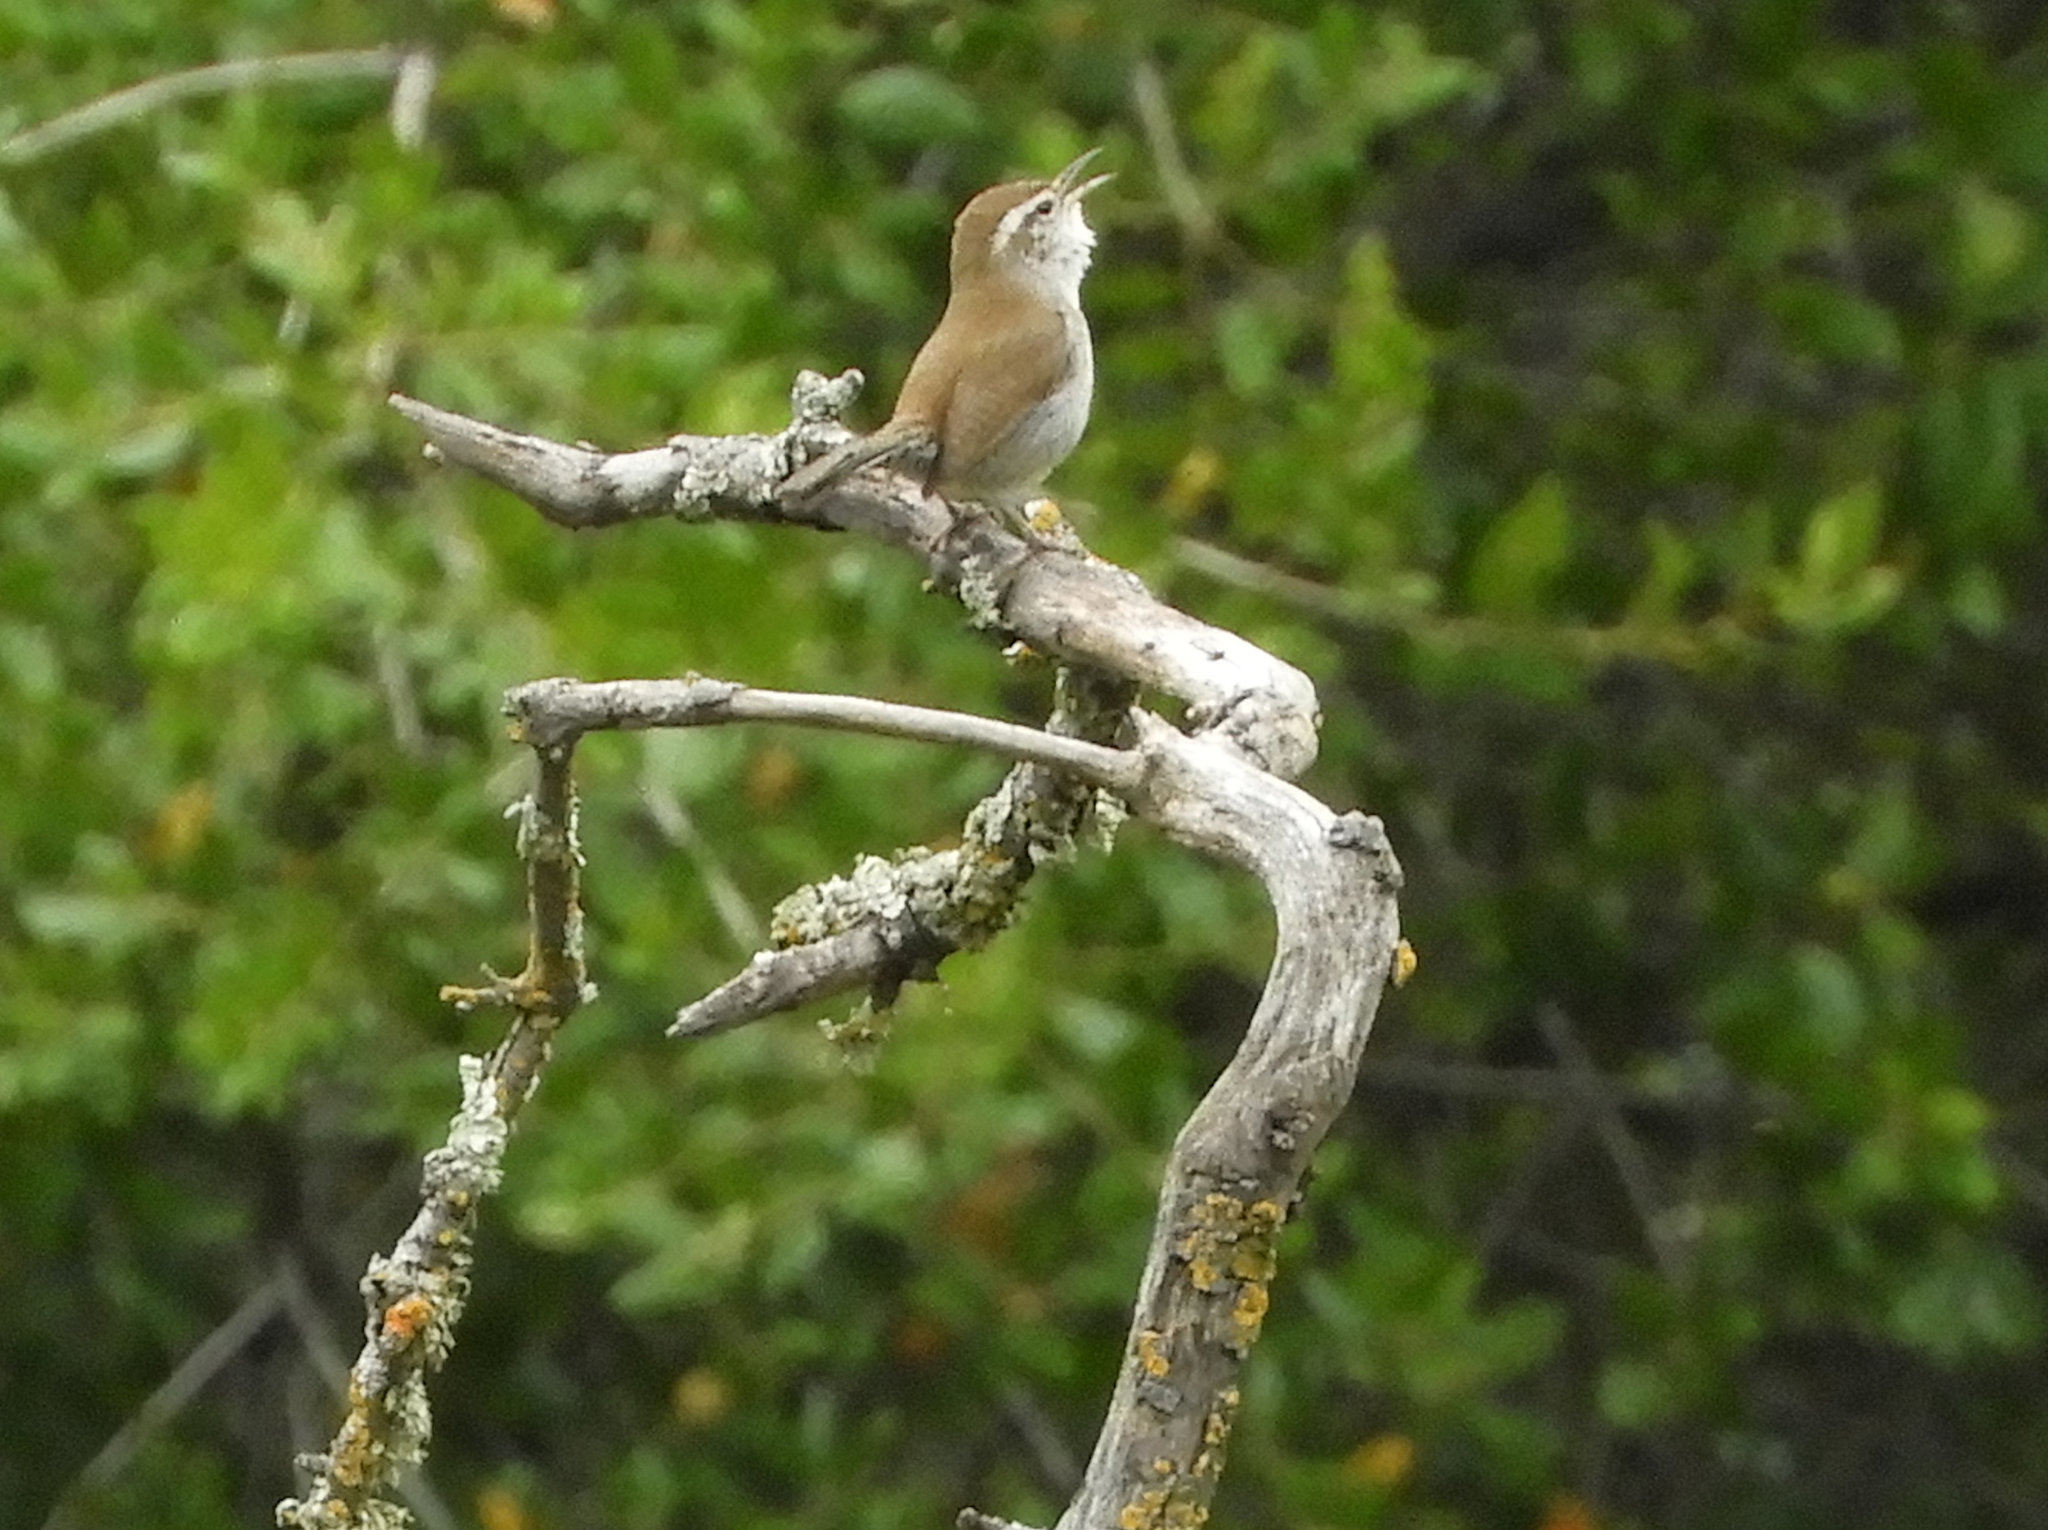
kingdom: Animalia
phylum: Chordata
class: Aves
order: Passeriformes
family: Troglodytidae
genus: Thryomanes
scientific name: Thryomanes bewickii
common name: Bewick's wren
